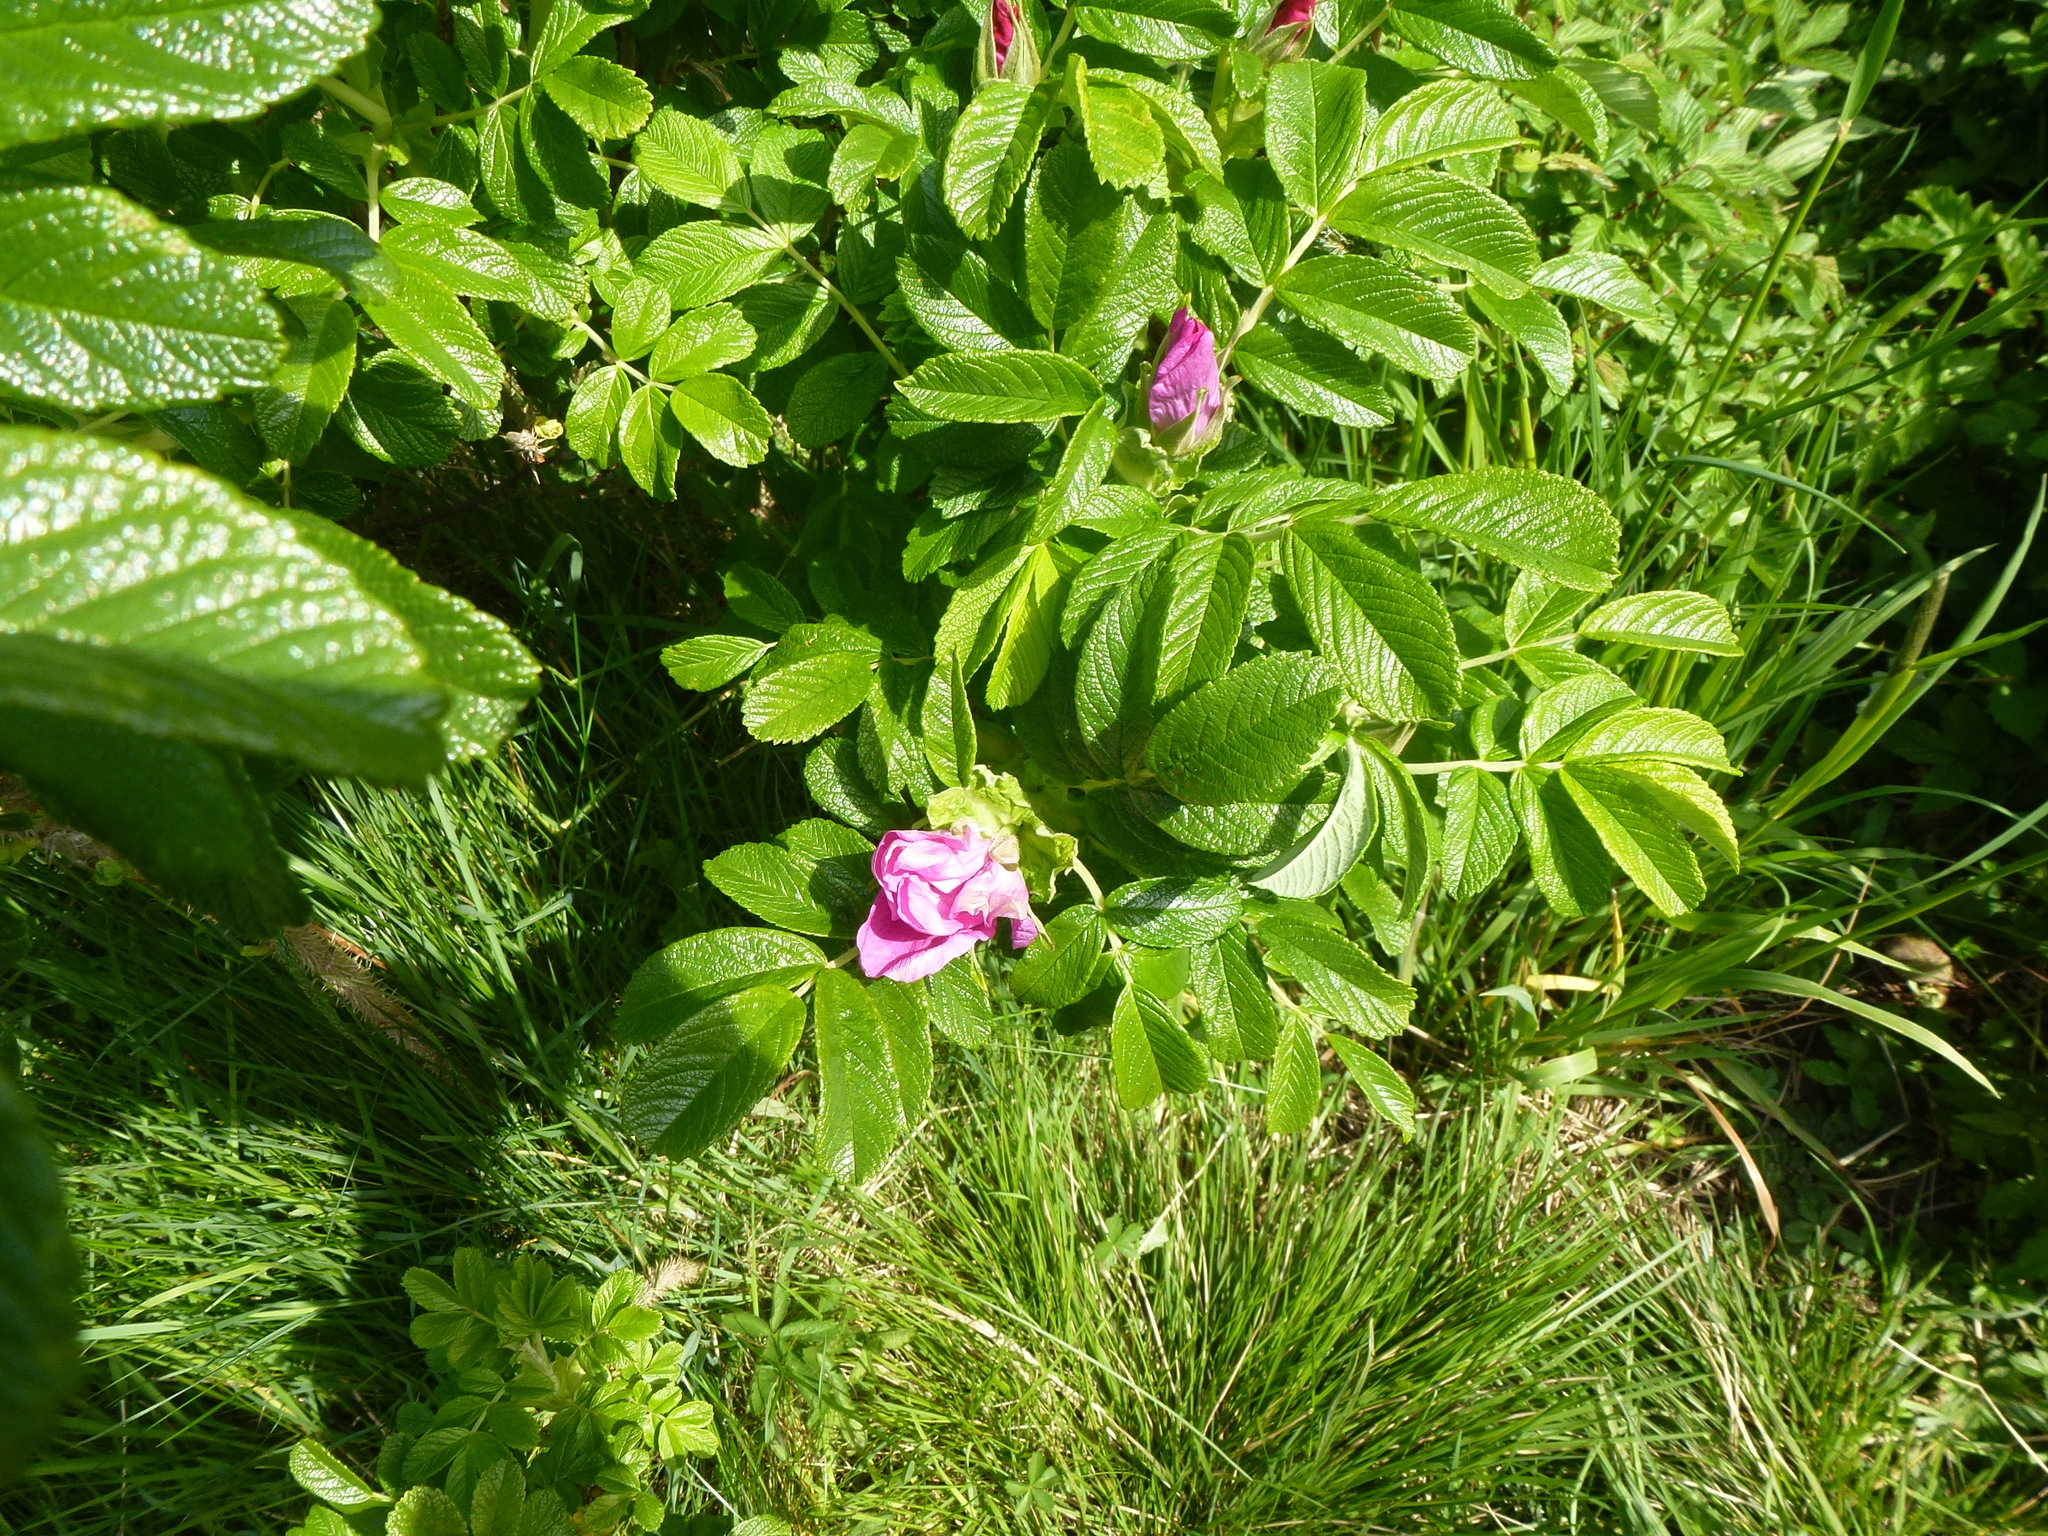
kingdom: Plantae
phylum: Tracheophyta
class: Magnoliopsida
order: Rosales
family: Rosaceae
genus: Rosa
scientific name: Rosa rugosa
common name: Japanese rose
